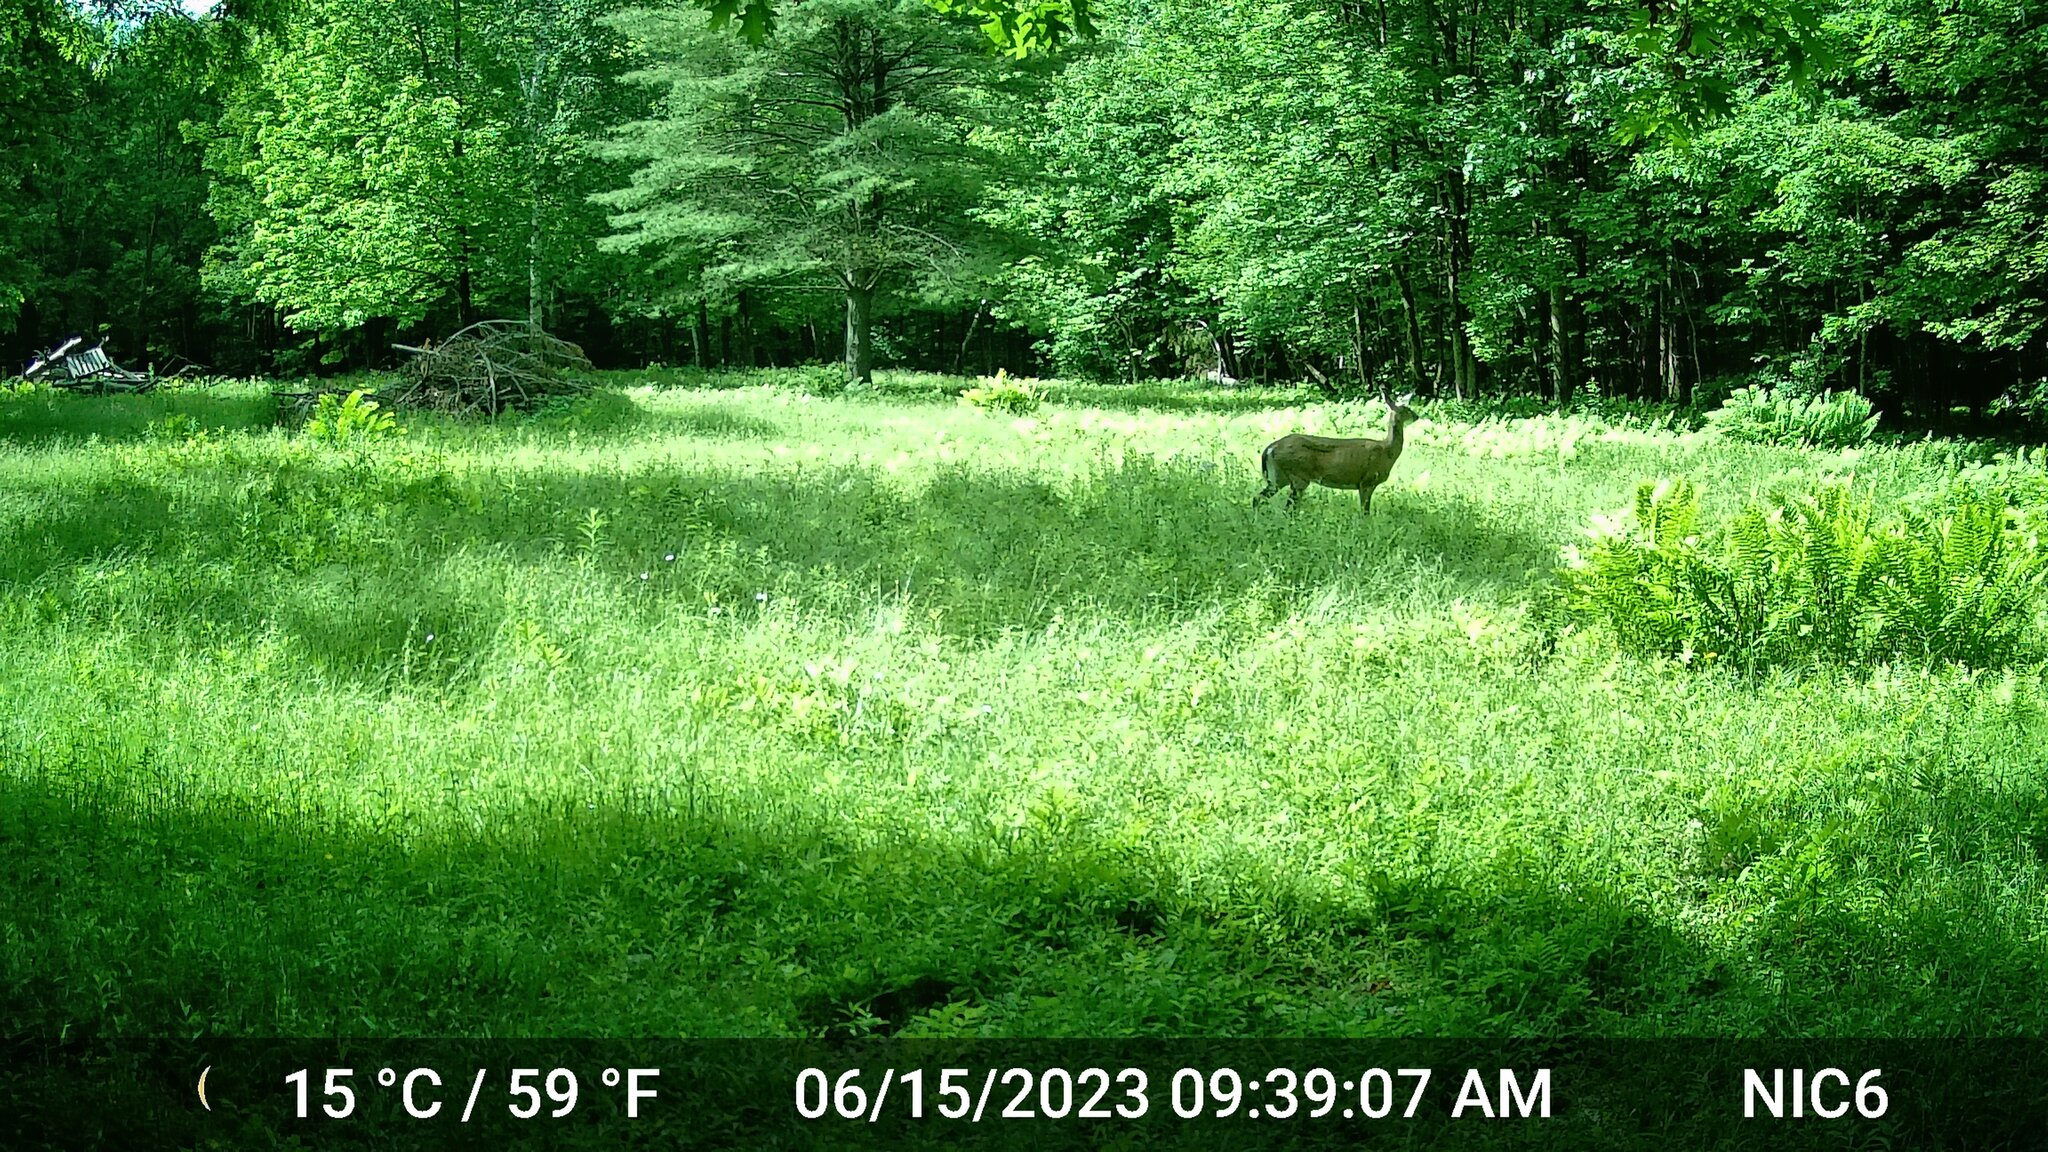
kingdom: Animalia
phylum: Chordata
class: Mammalia
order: Artiodactyla
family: Cervidae
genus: Odocoileus
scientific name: Odocoileus virginianus
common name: White-tailed deer
